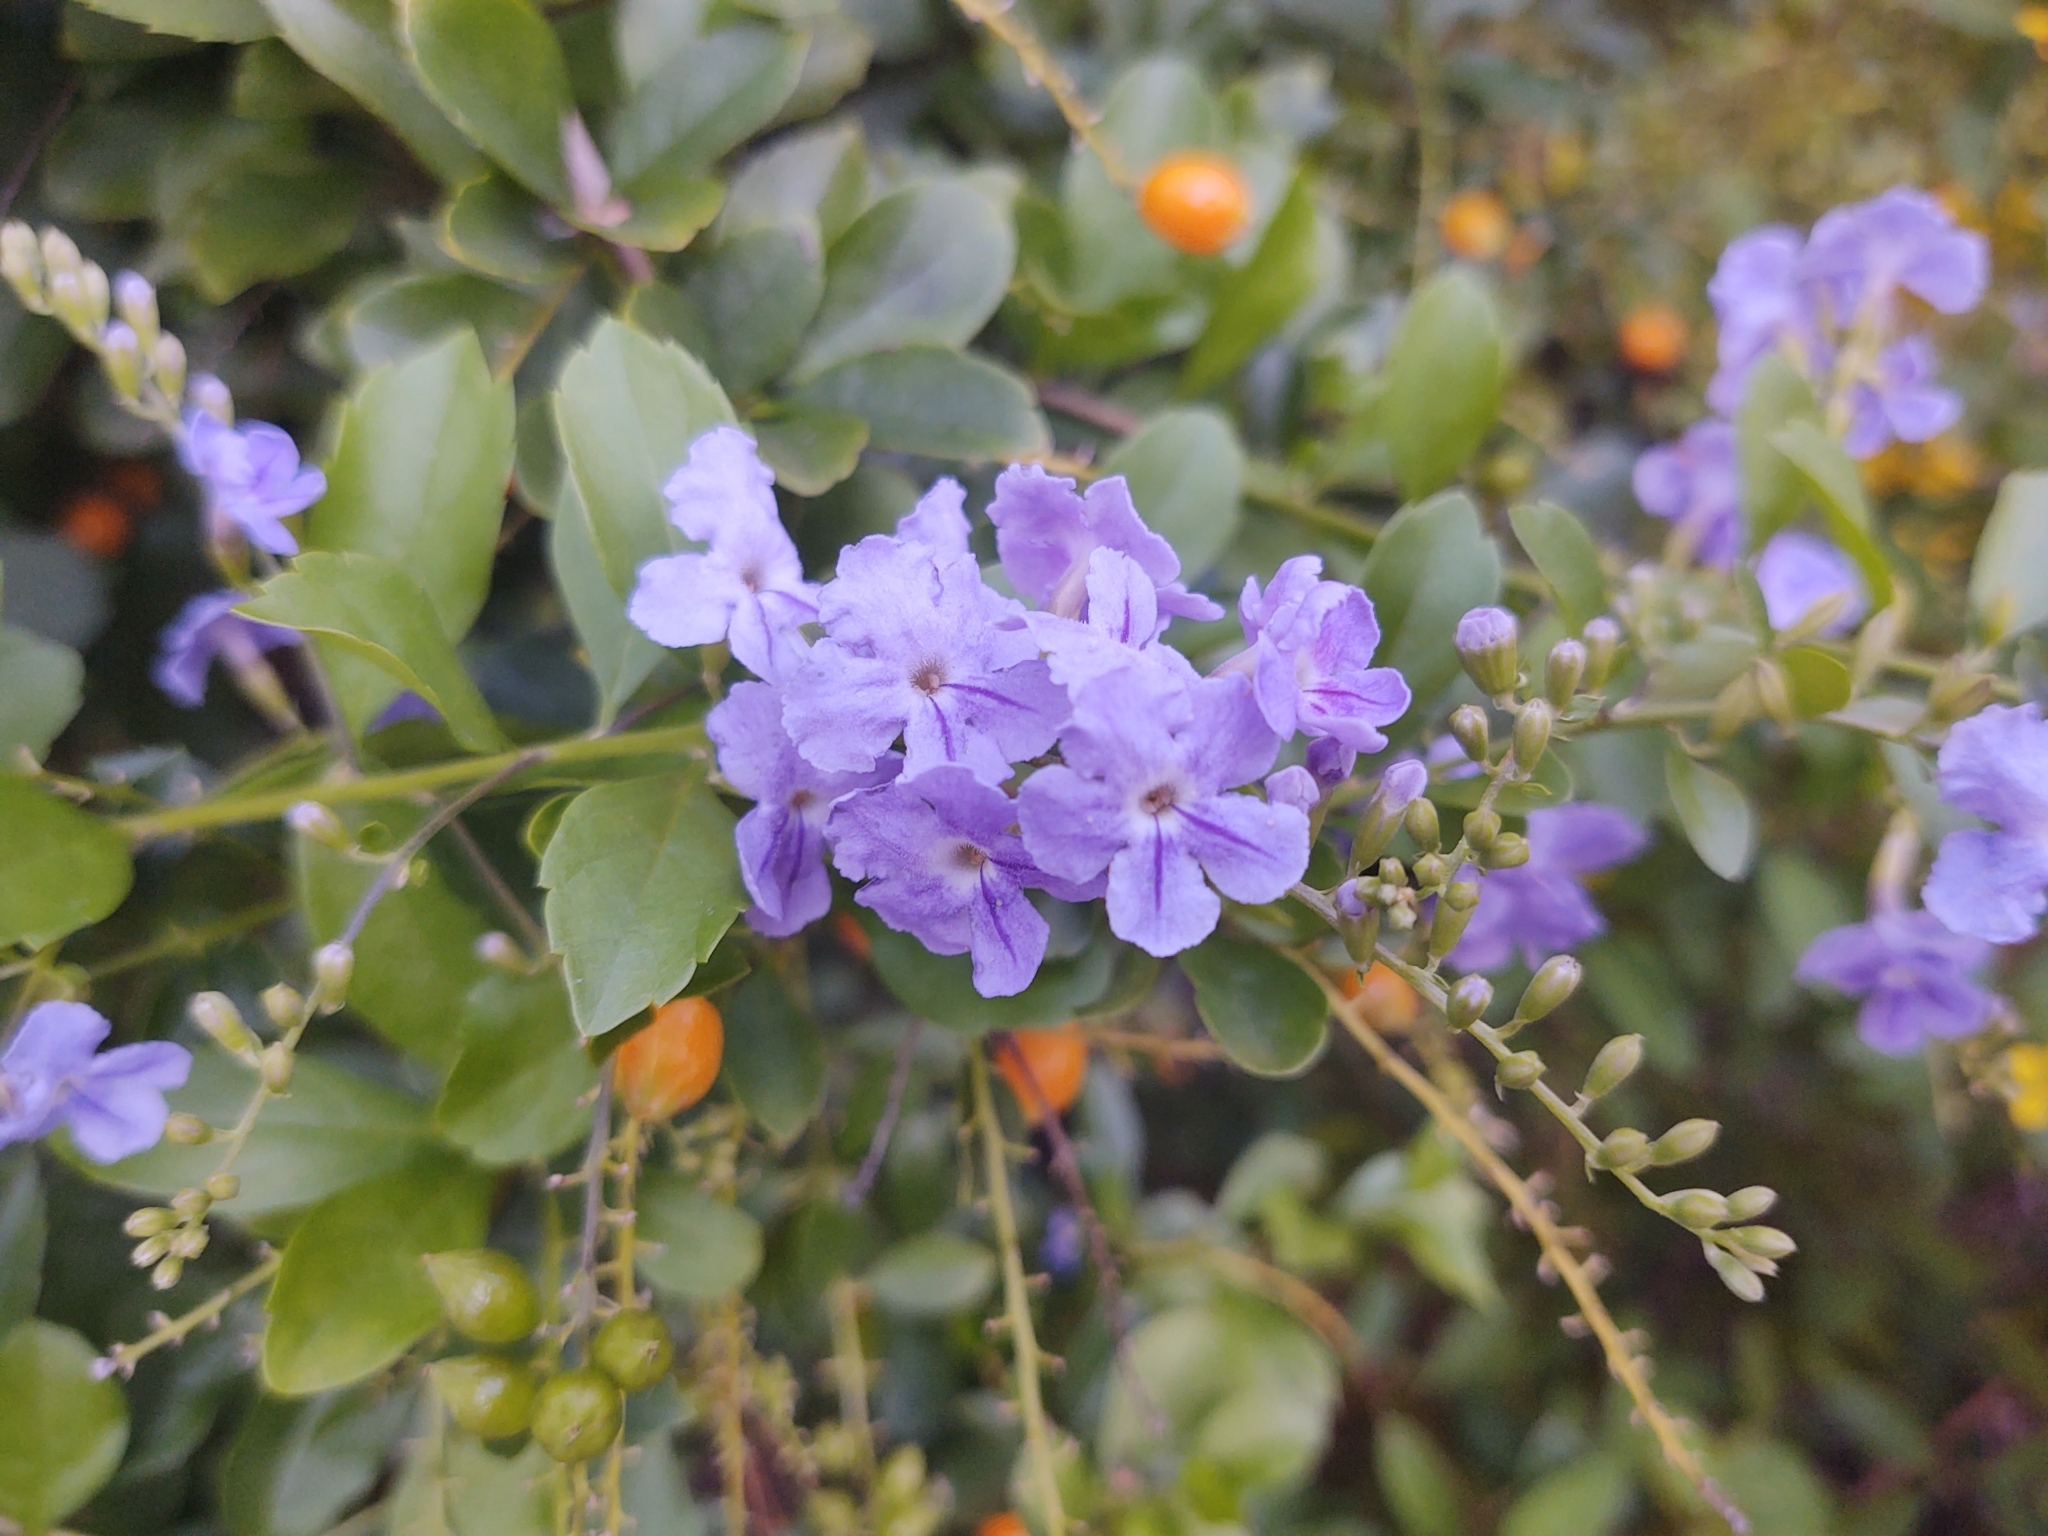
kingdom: Plantae
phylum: Tracheophyta
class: Magnoliopsida
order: Lamiales
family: Verbenaceae
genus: Duranta
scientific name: Duranta erecta
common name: Golden dewdrops
